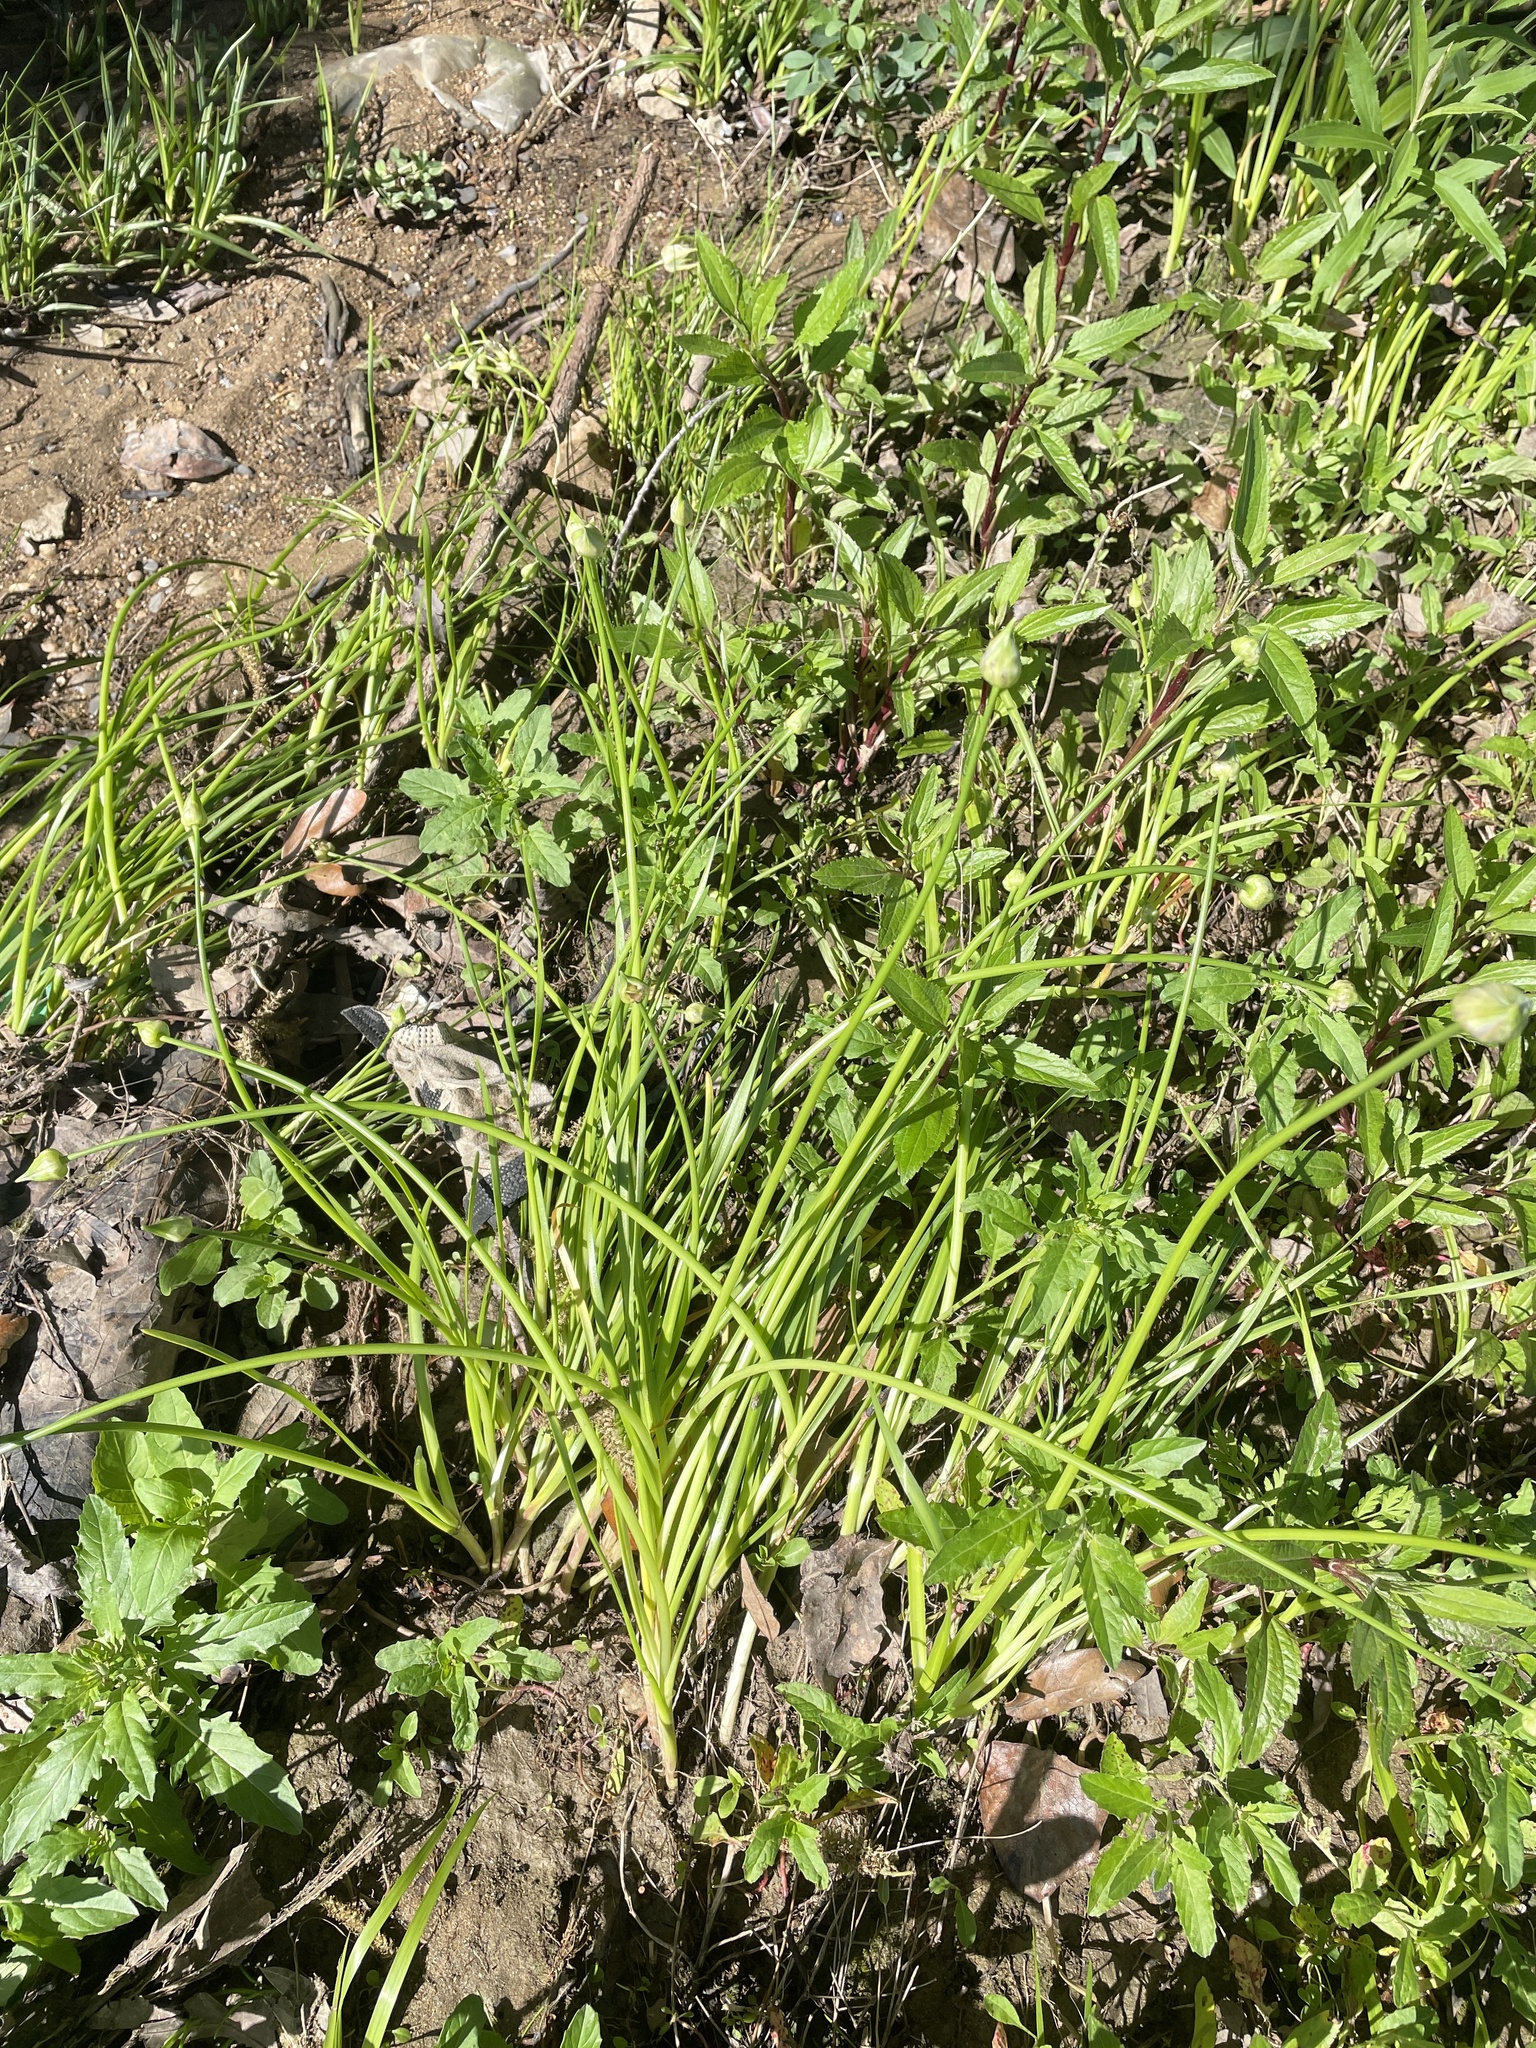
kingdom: Plantae
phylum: Tracheophyta
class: Liliopsida
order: Asparagales
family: Amaryllidaceae
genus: Allium
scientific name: Allium canadense
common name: Meadow garlic
